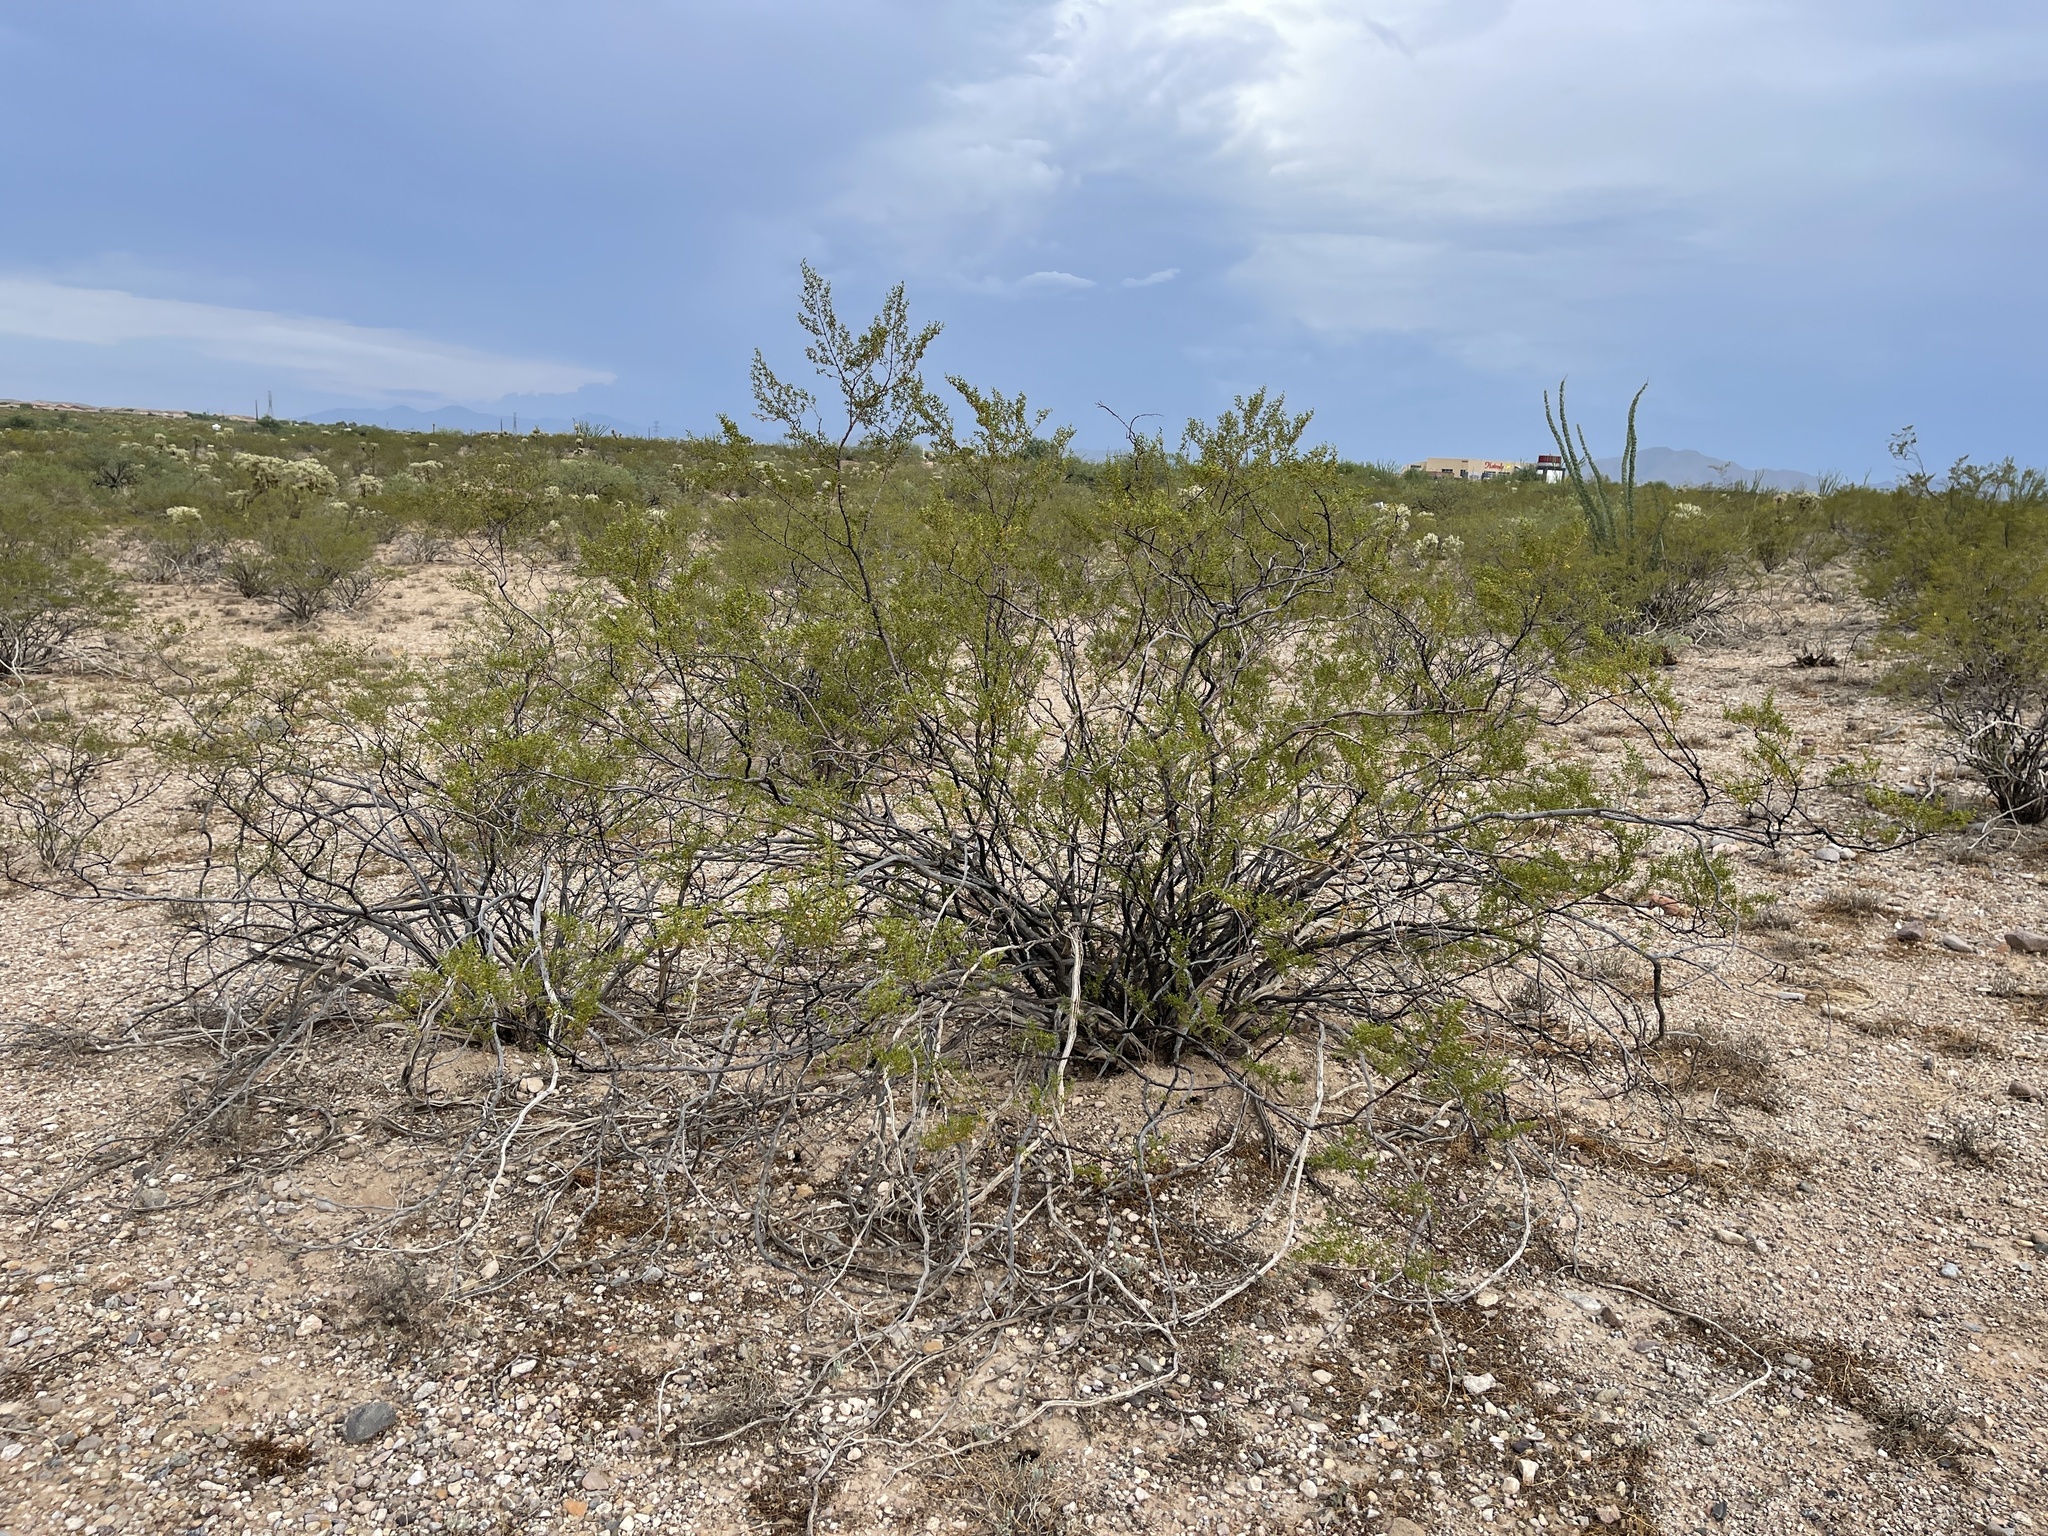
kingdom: Plantae
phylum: Tracheophyta
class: Magnoliopsida
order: Zygophyllales
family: Zygophyllaceae
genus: Larrea
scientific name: Larrea tridentata
